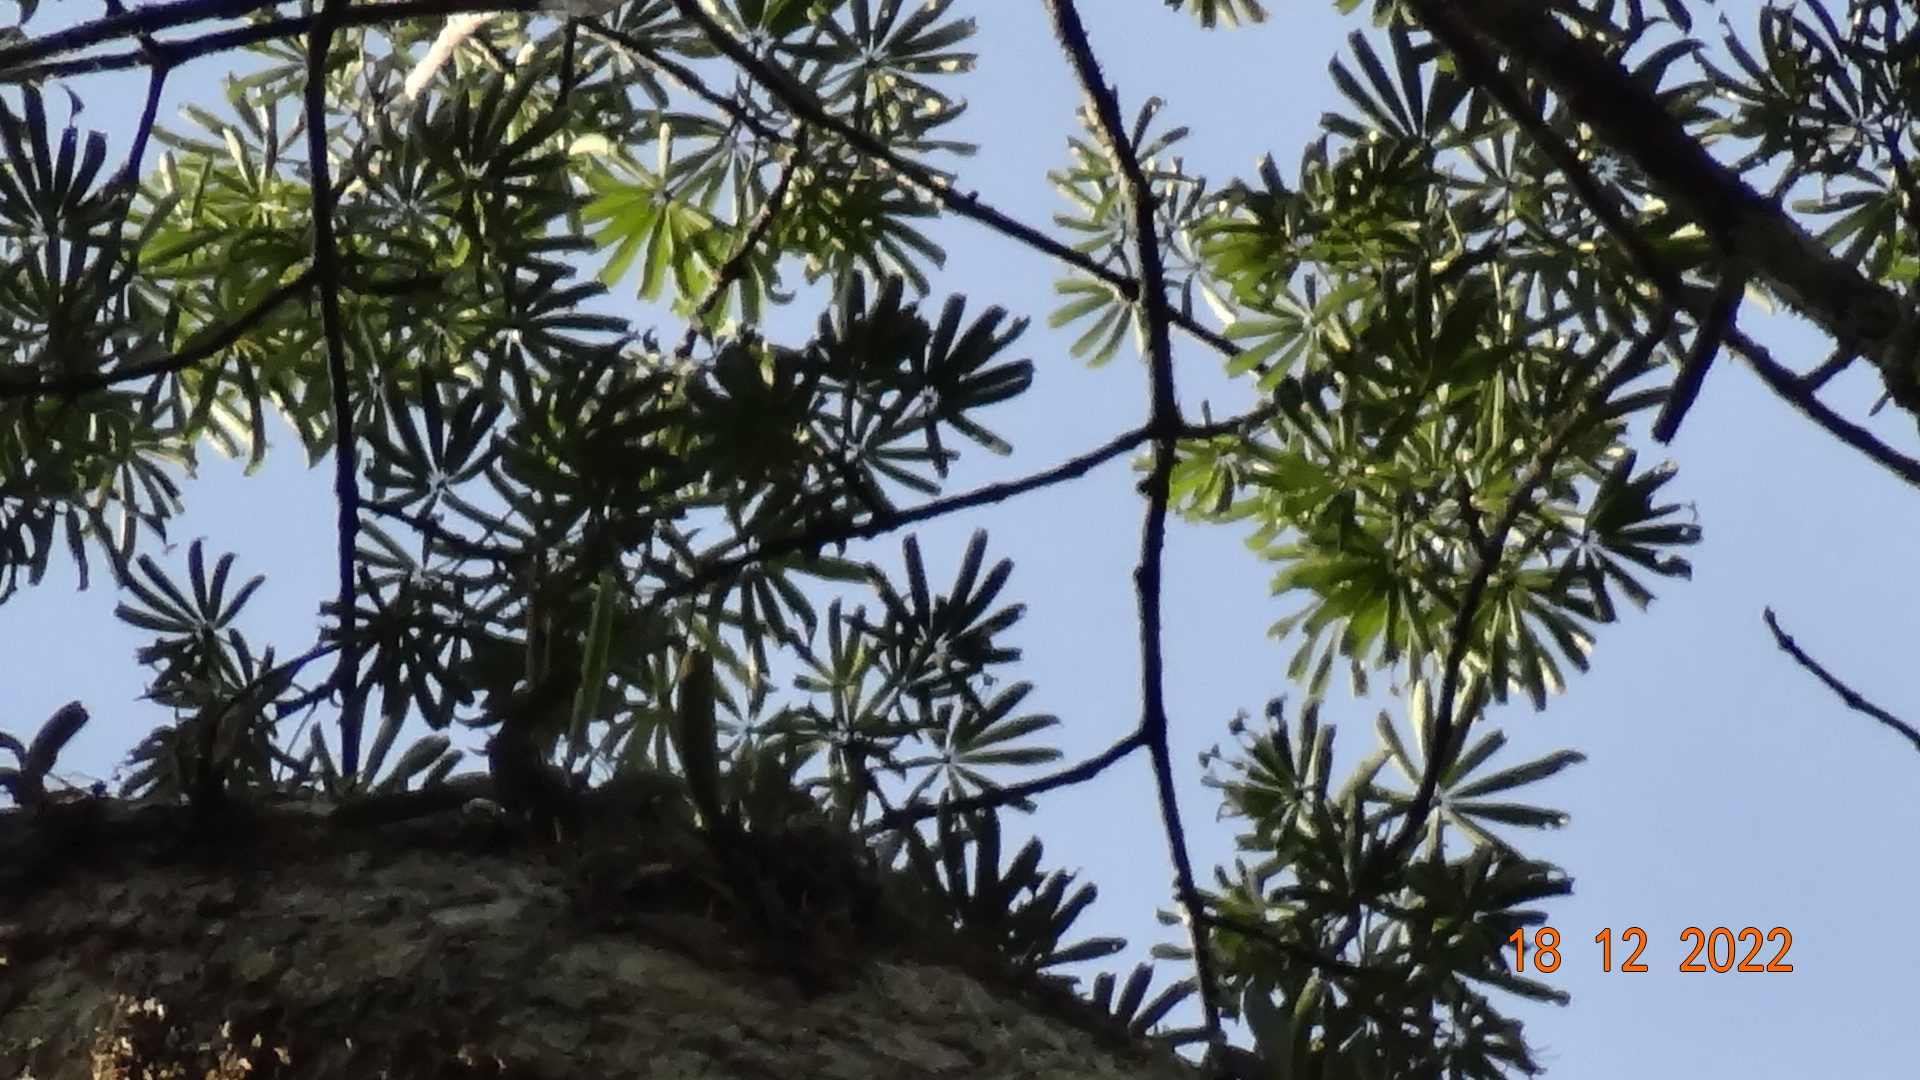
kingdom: Plantae
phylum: Tracheophyta
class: Magnoliopsida
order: Malvales
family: Malvaceae
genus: Ceiba
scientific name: Ceiba pentandra
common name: Kapok
